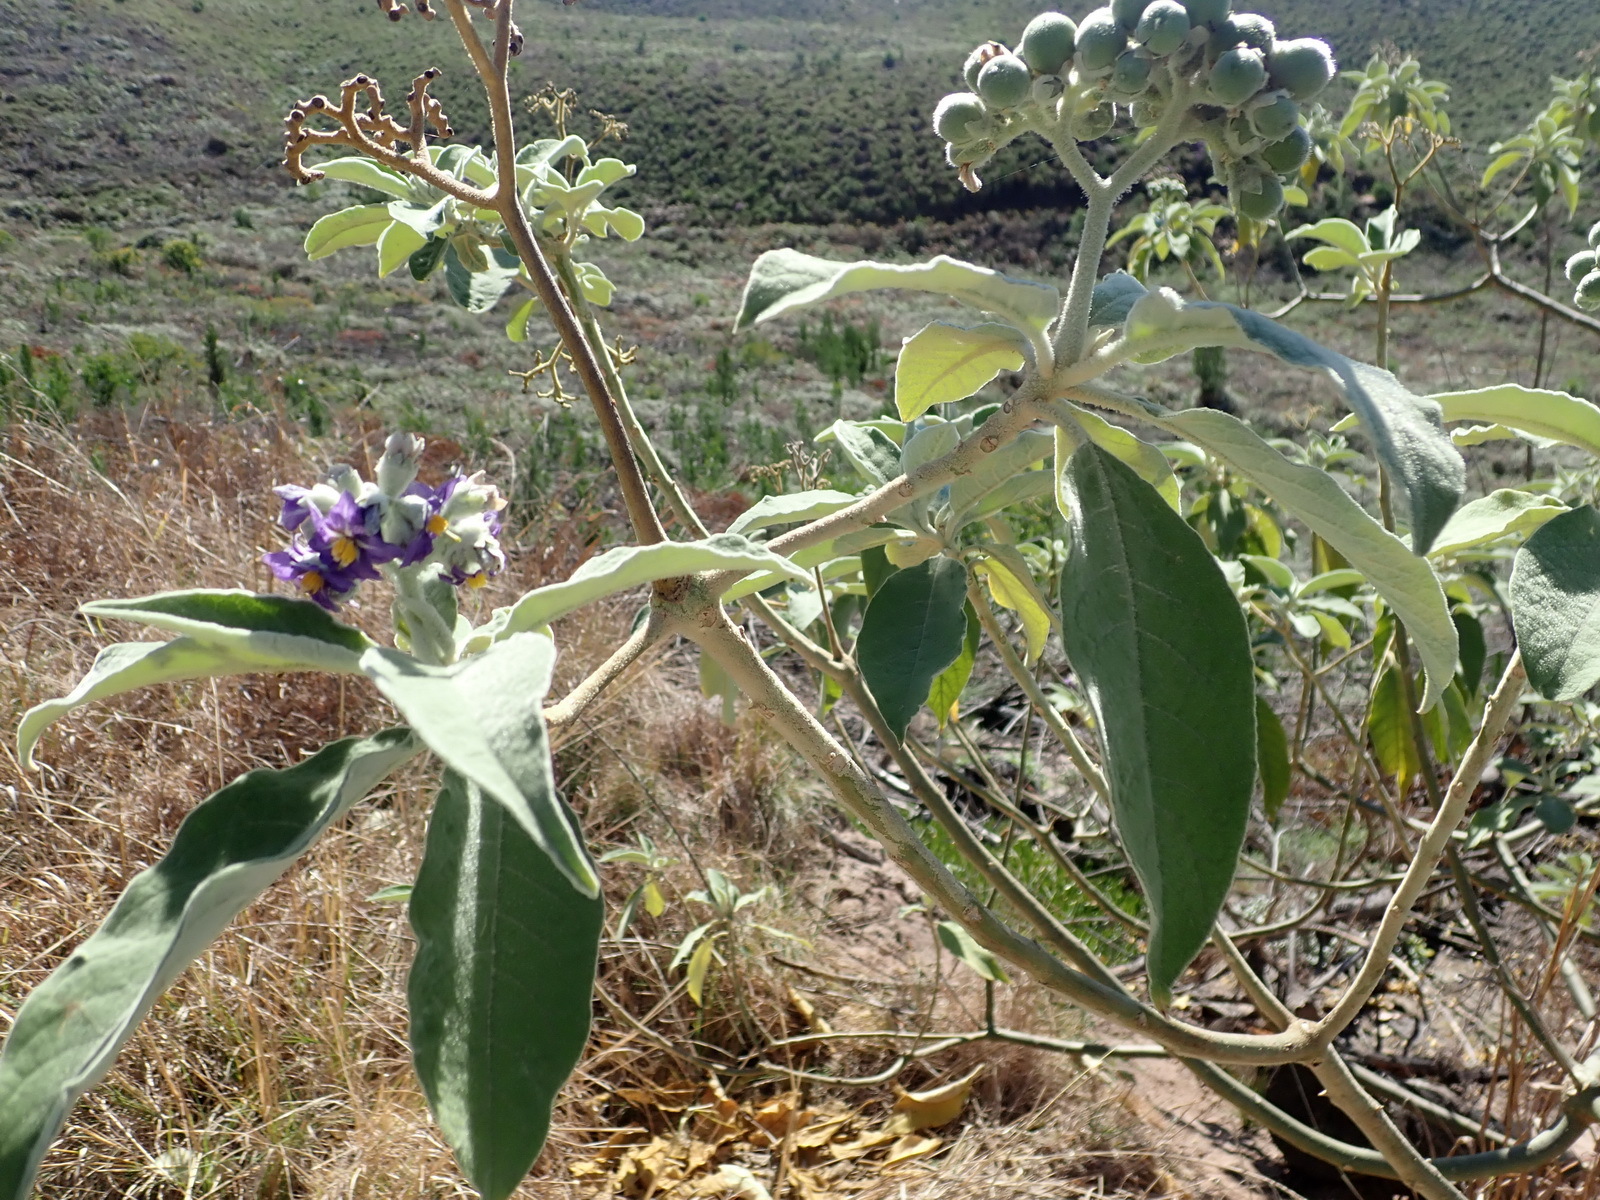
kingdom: Plantae
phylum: Tracheophyta
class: Magnoliopsida
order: Solanales
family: Solanaceae
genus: Solanum
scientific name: Solanum mauritianum
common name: Earleaf nightshade
